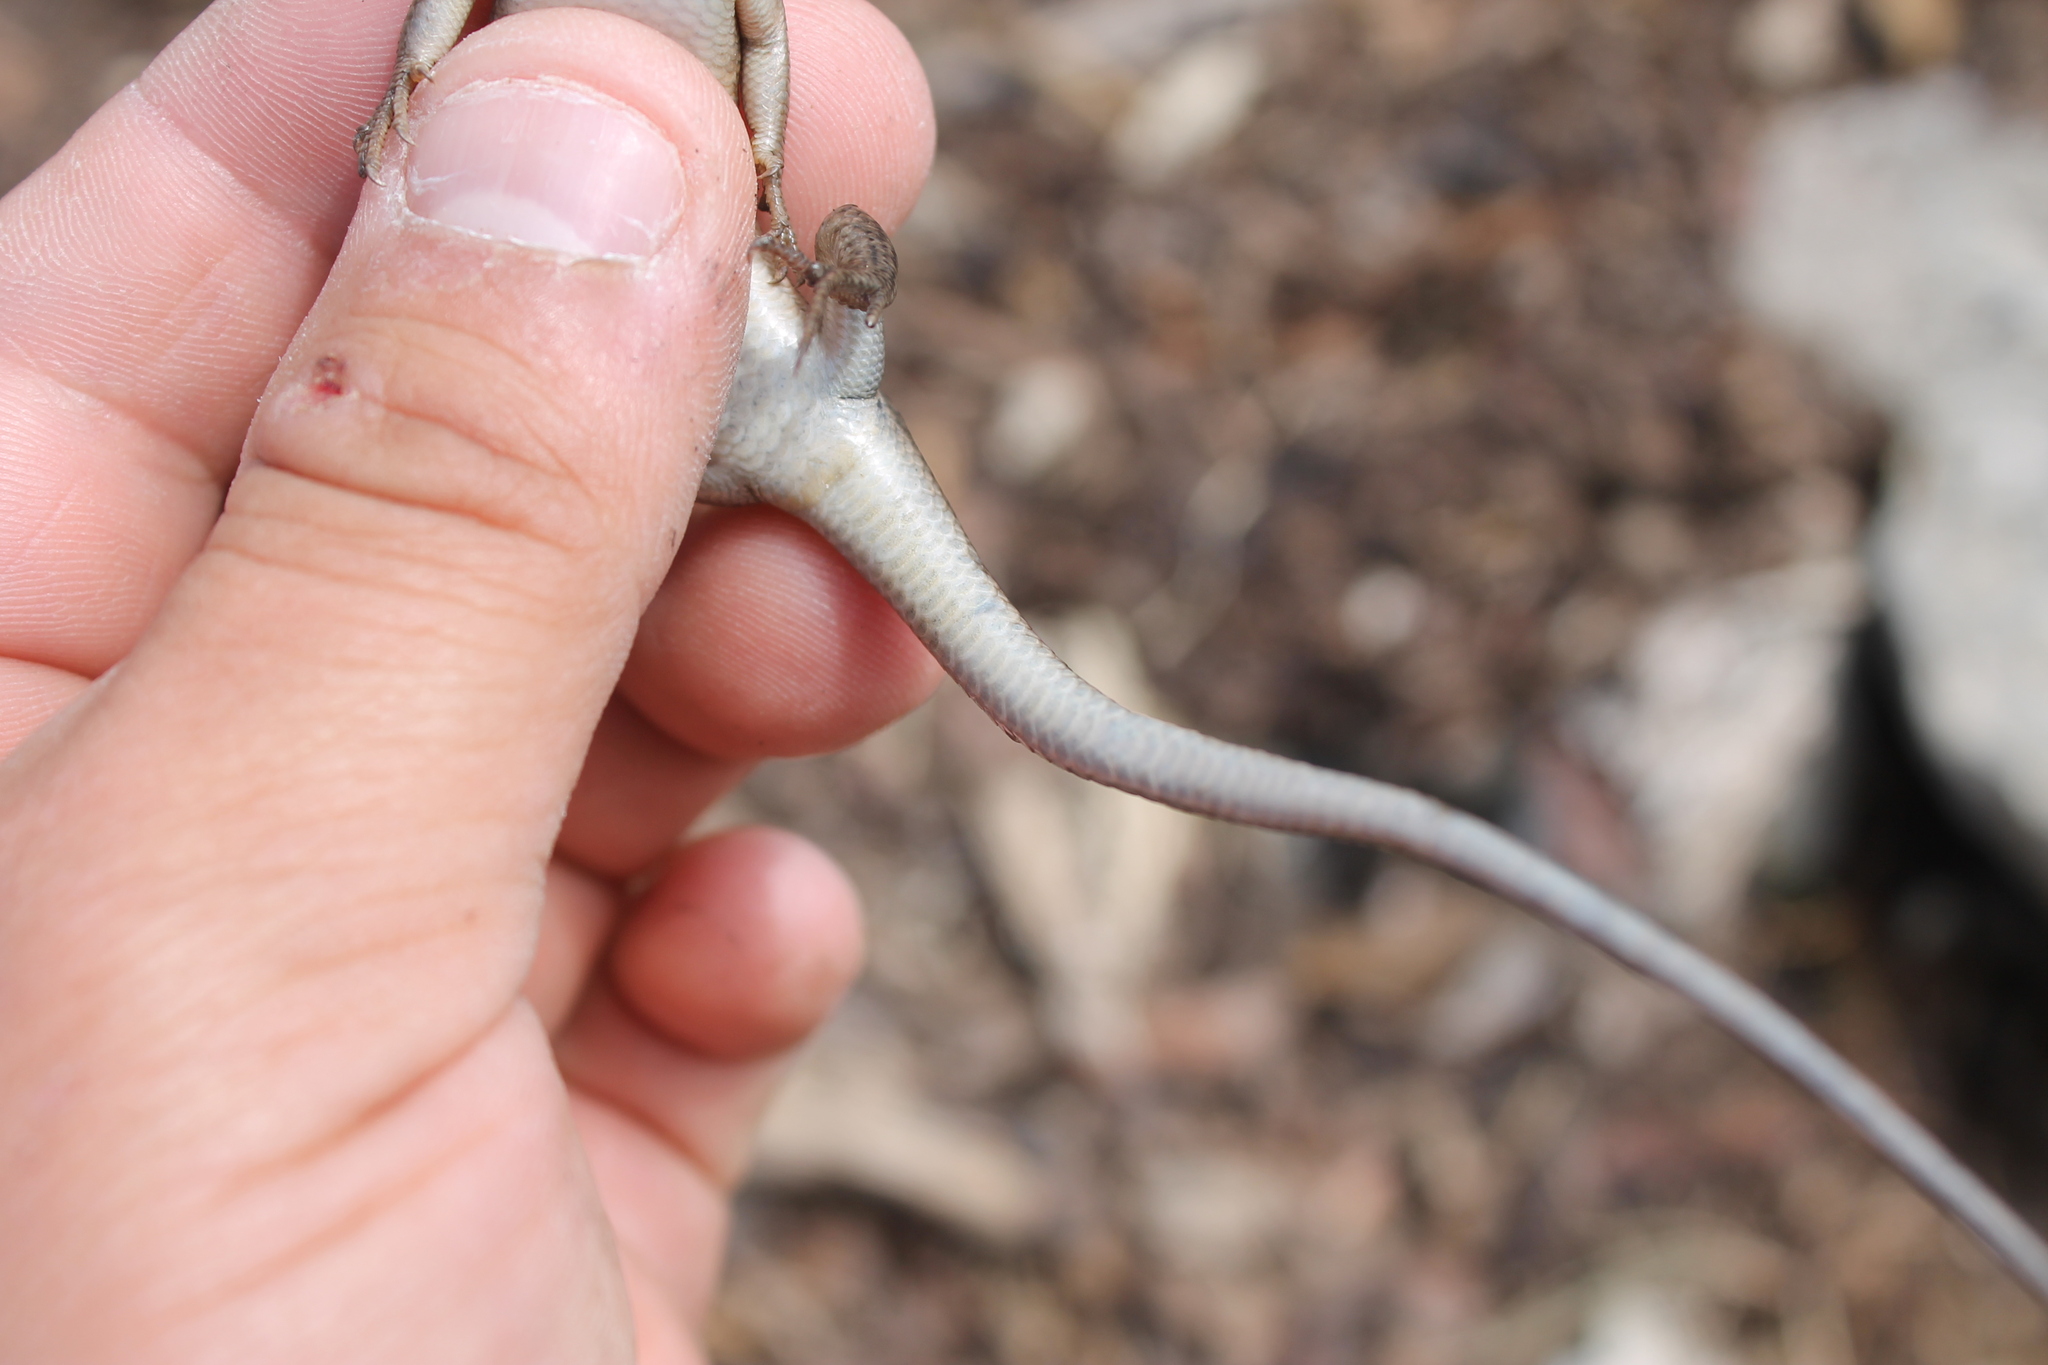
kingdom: Animalia
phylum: Chordata
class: Squamata
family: Scincidae
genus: Plestiodon
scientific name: Plestiodon fasciatus
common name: Five-lined skink
